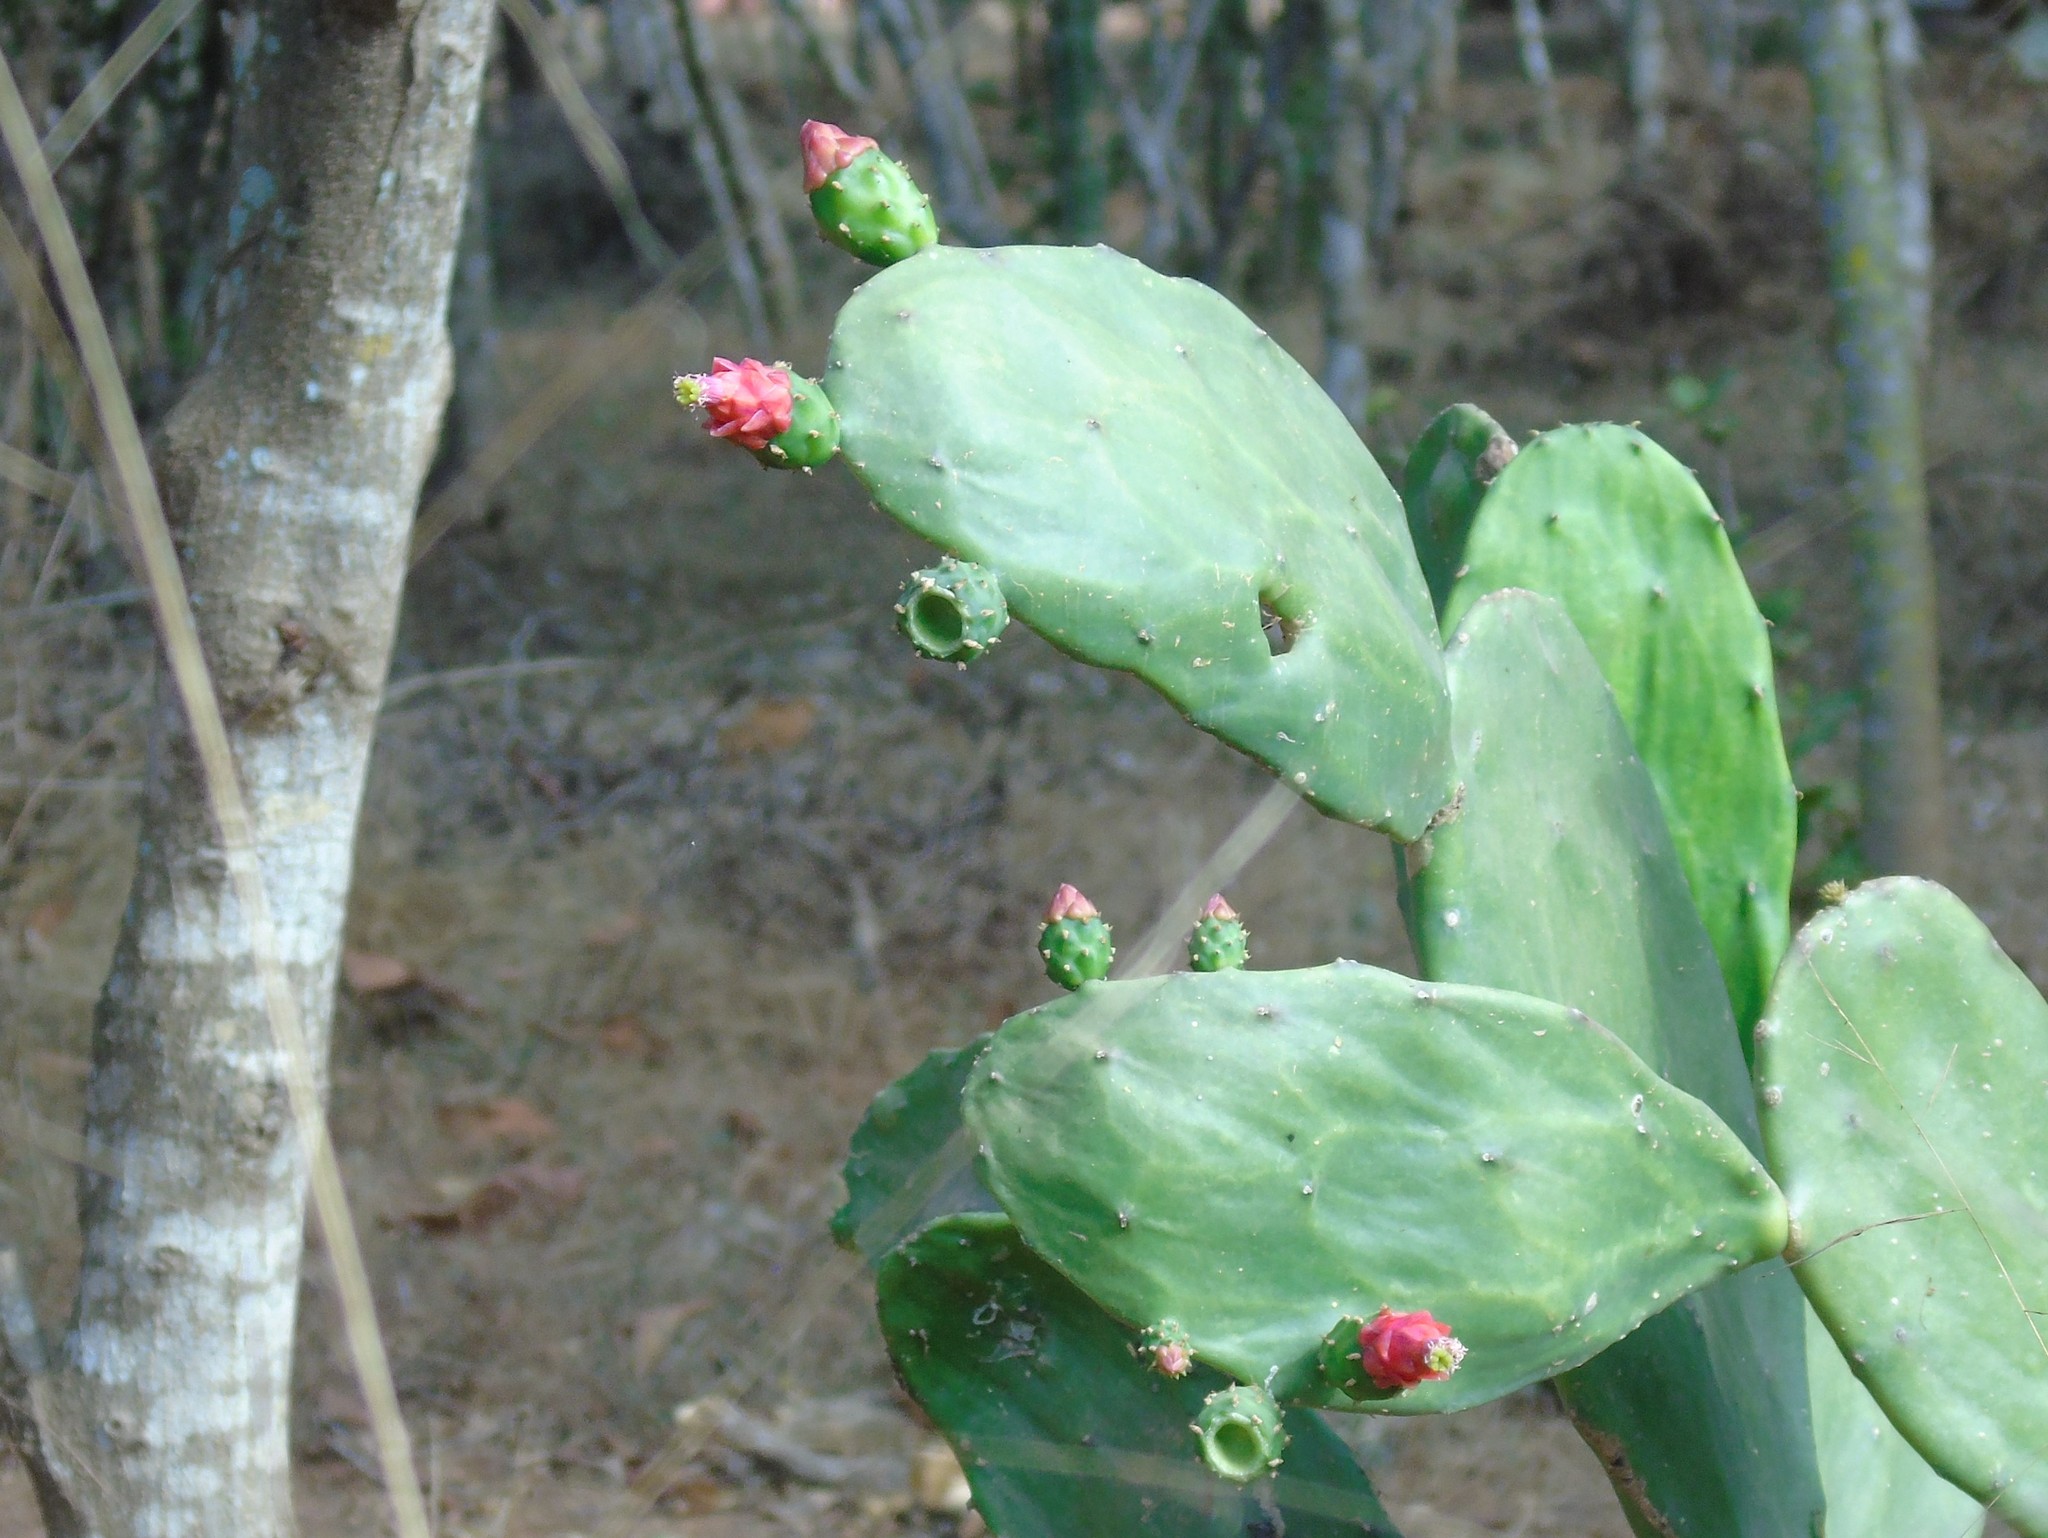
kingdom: Plantae
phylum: Tracheophyta
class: Magnoliopsida
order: Caryophyllales
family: Cactaceae
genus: Opuntia
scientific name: Opuntia cochenillifera
